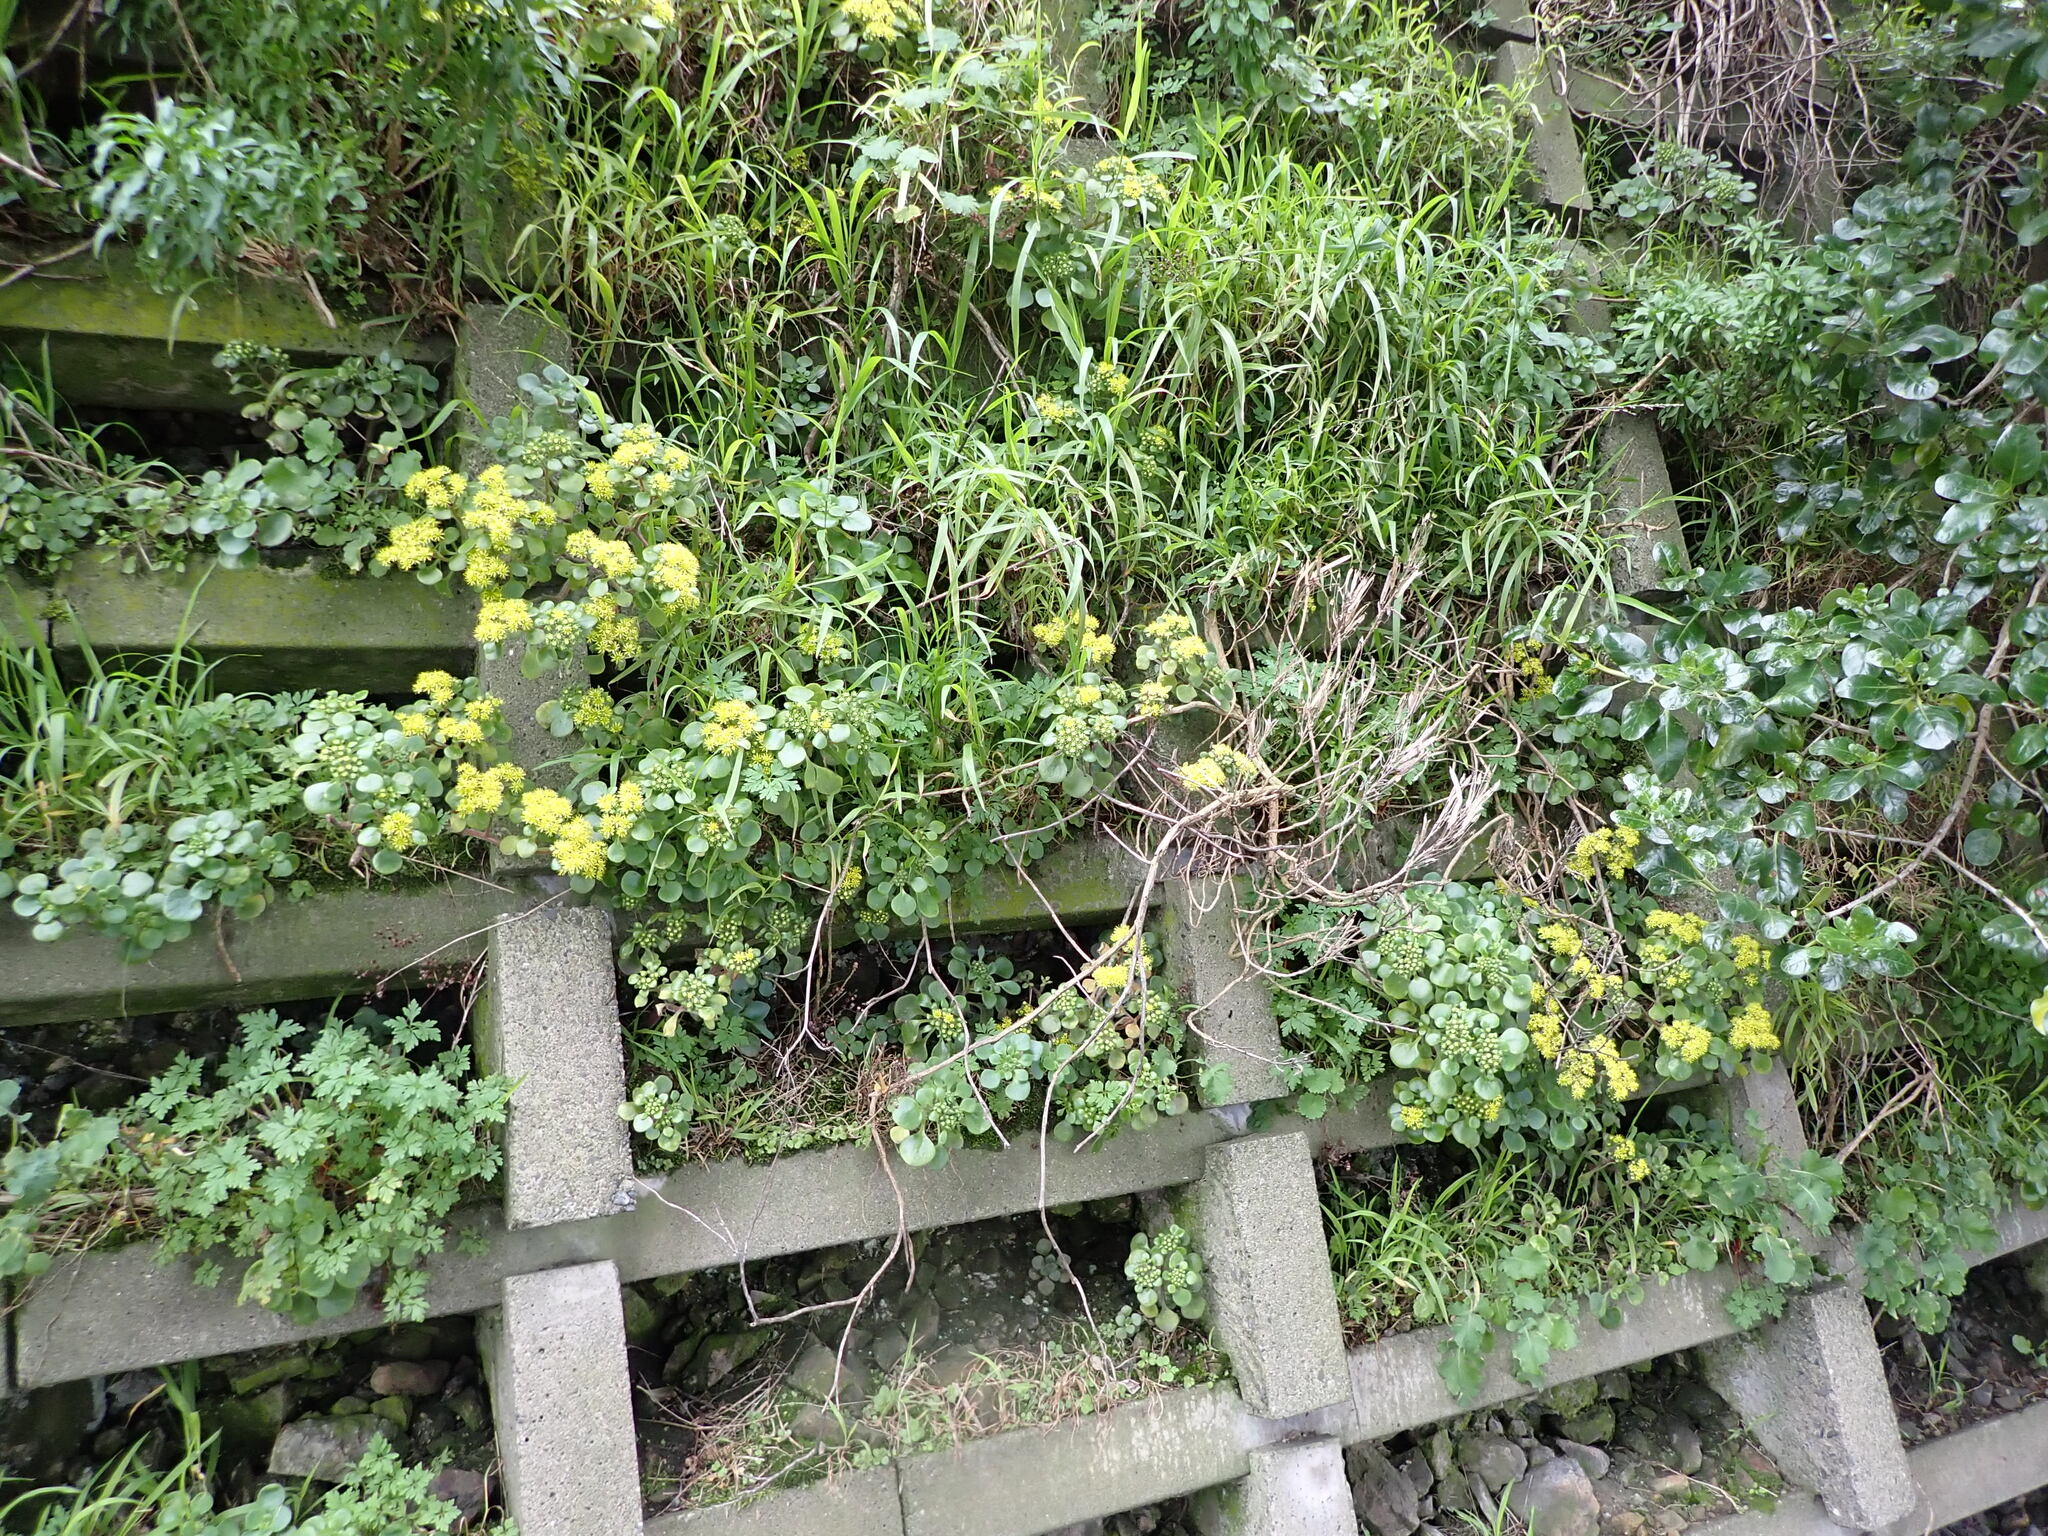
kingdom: Plantae
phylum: Tracheophyta
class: Magnoliopsida
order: Saxifragales
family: Crassulaceae
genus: Aichryson
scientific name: Aichryson laxum
